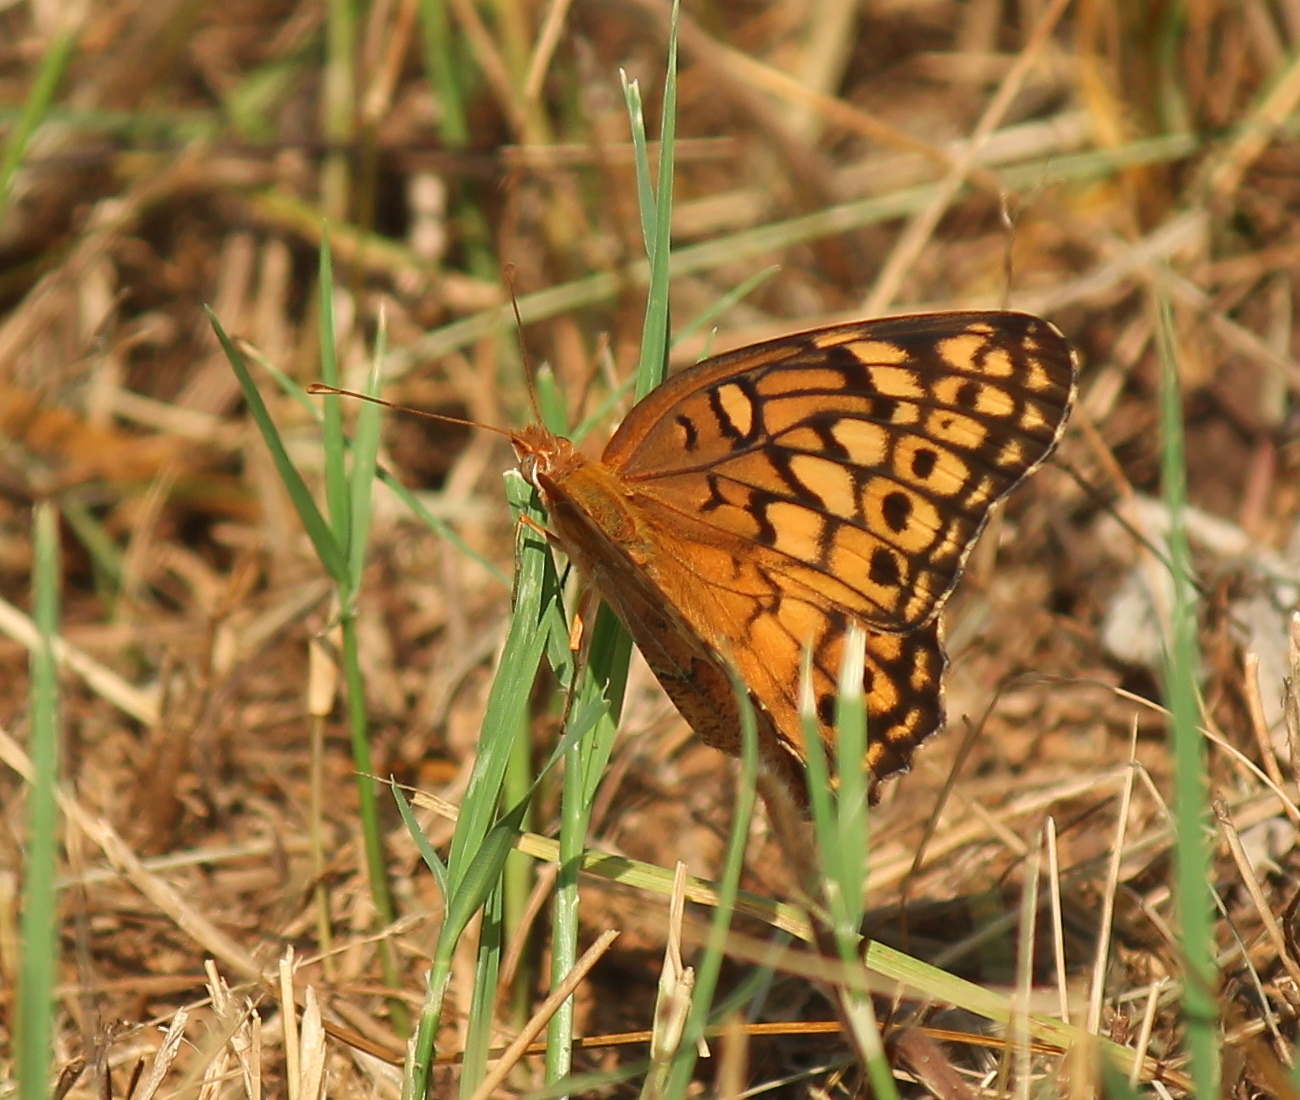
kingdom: Animalia
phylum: Arthropoda
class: Insecta
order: Lepidoptera
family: Nymphalidae
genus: Euptoieta
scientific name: Euptoieta claudia
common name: Variegated fritillary
